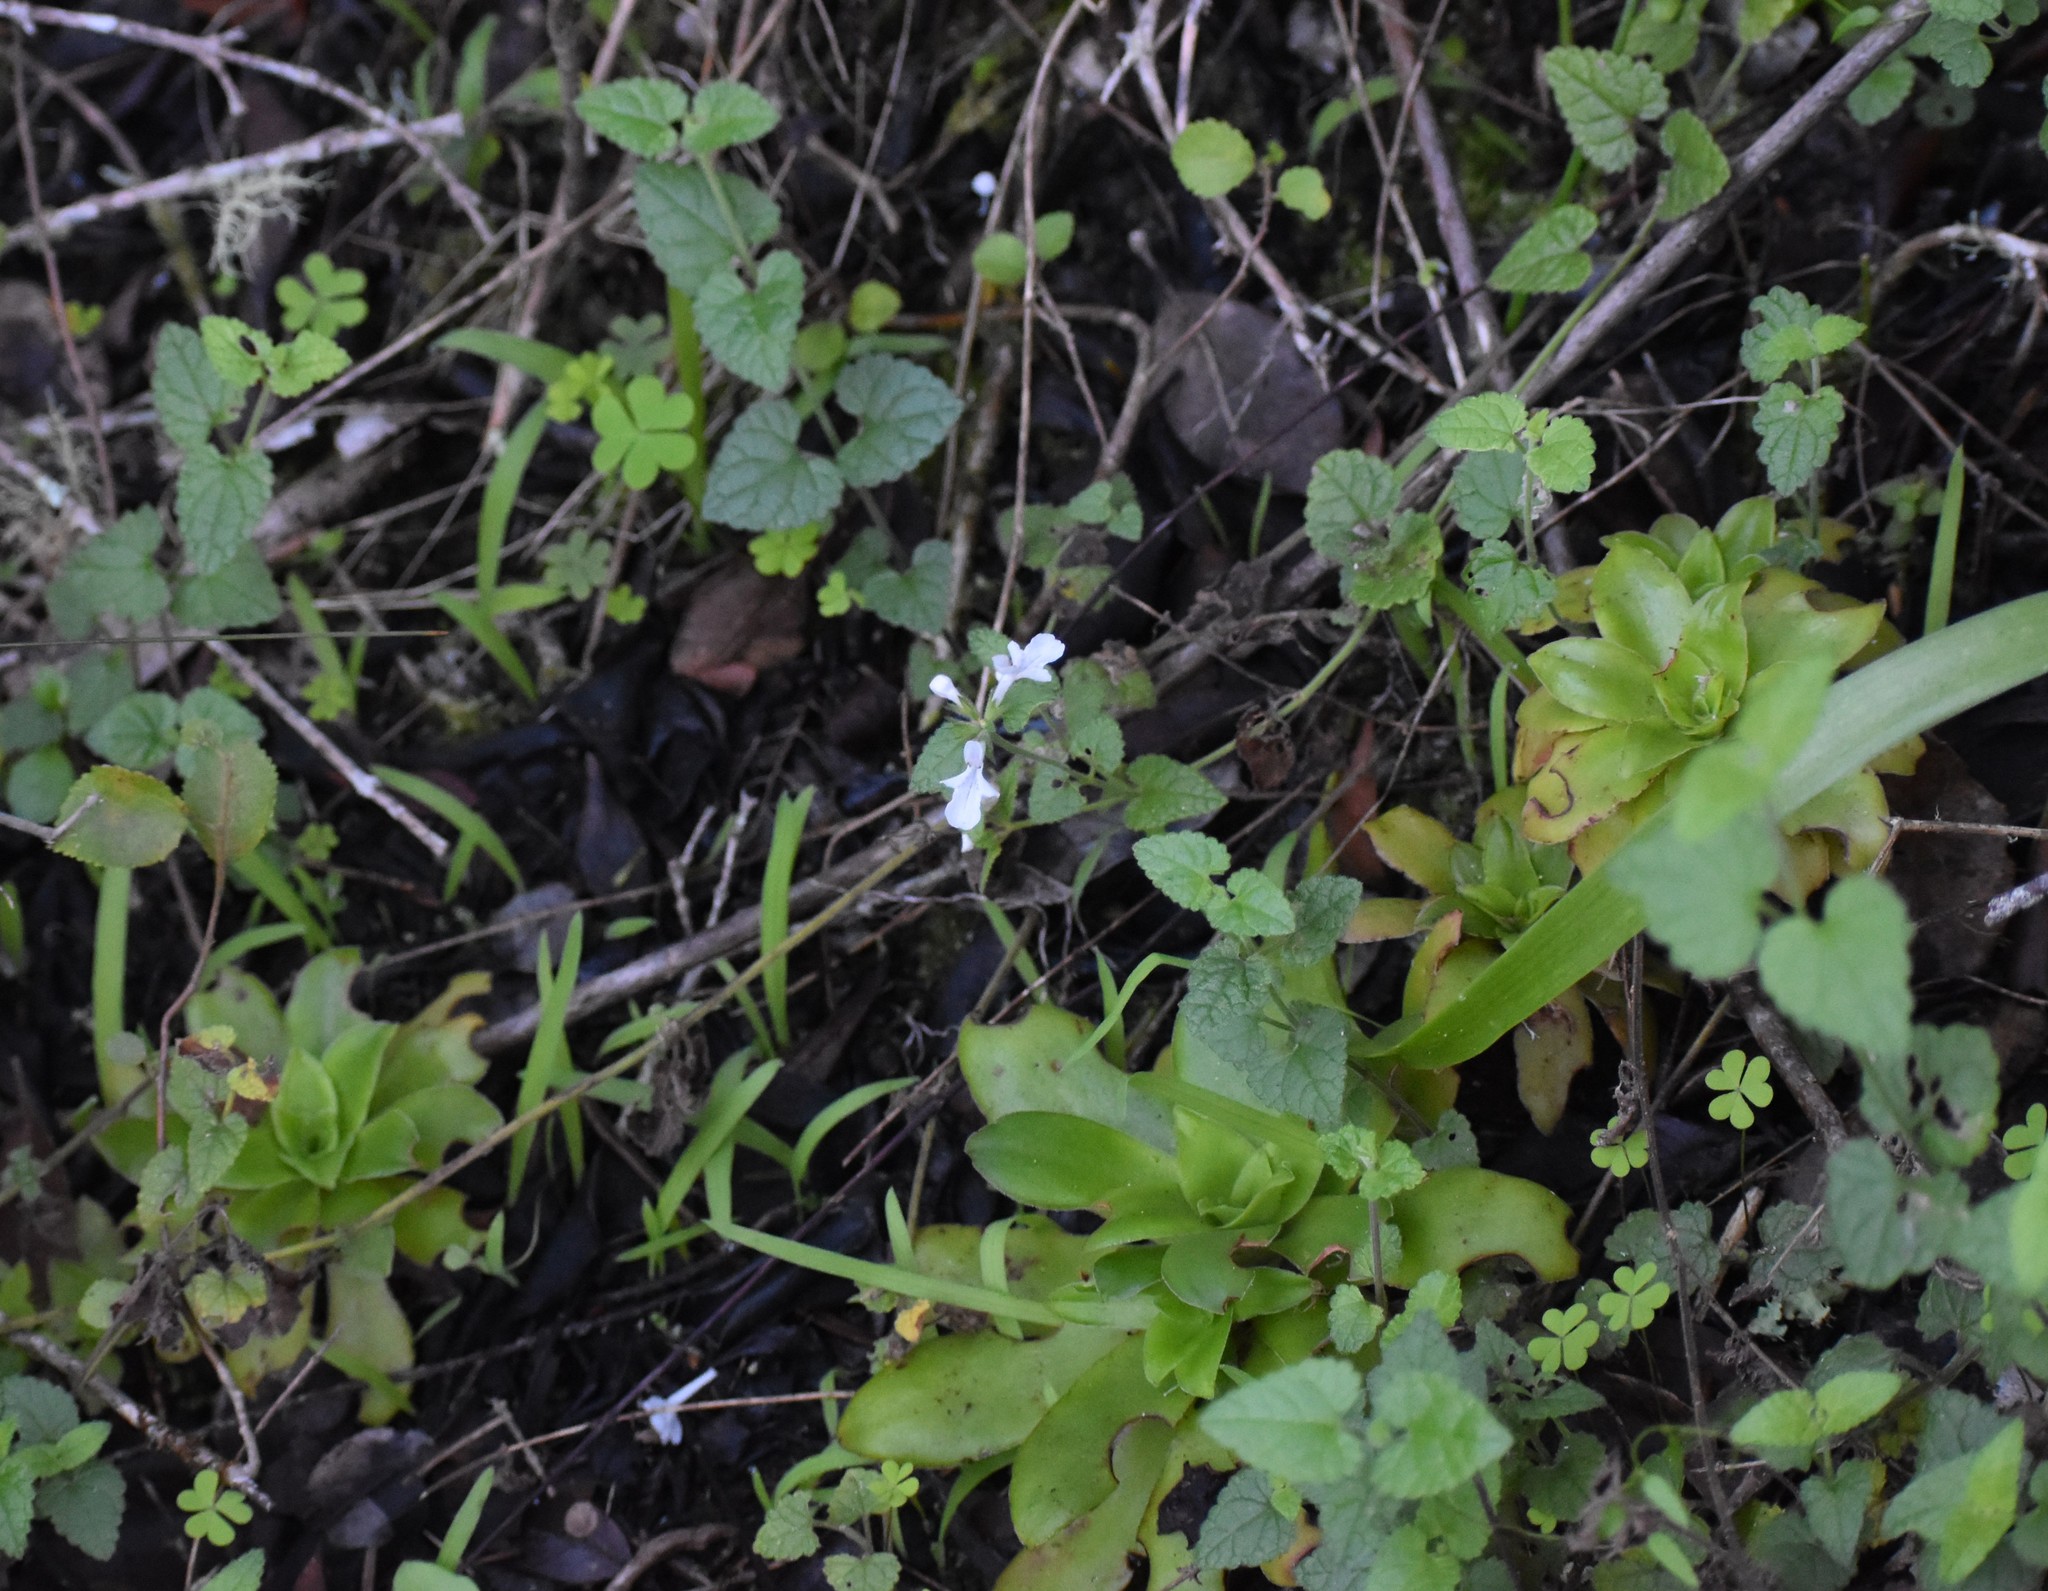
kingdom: Plantae
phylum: Tracheophyta
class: Magnoliopsida
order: Lamiales
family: Lamiaceae
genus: Stachys
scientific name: Stachys aethiopica
